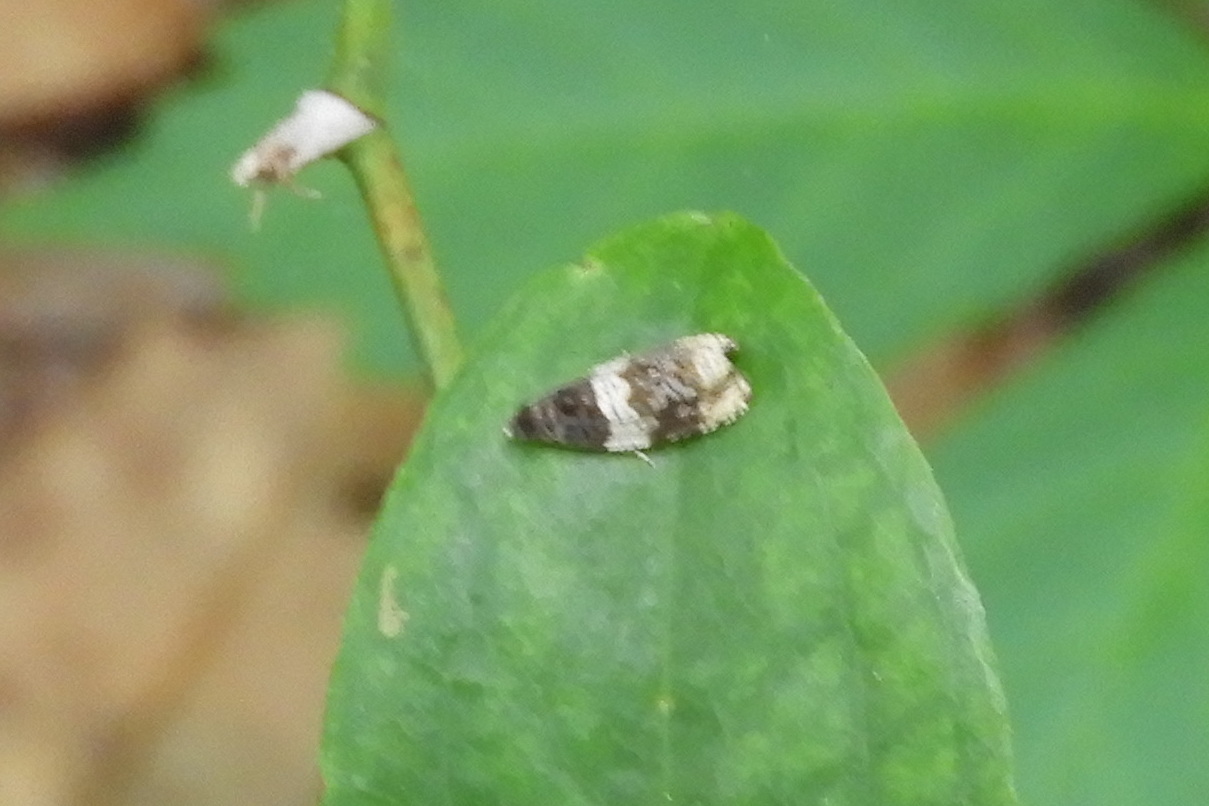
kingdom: Animalia
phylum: Arthropoda
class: Insecta
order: Lepidoptera
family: Tortricidae
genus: Olethreutes
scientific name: Olethreutes fasciatana
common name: Banded olethreutes moth
